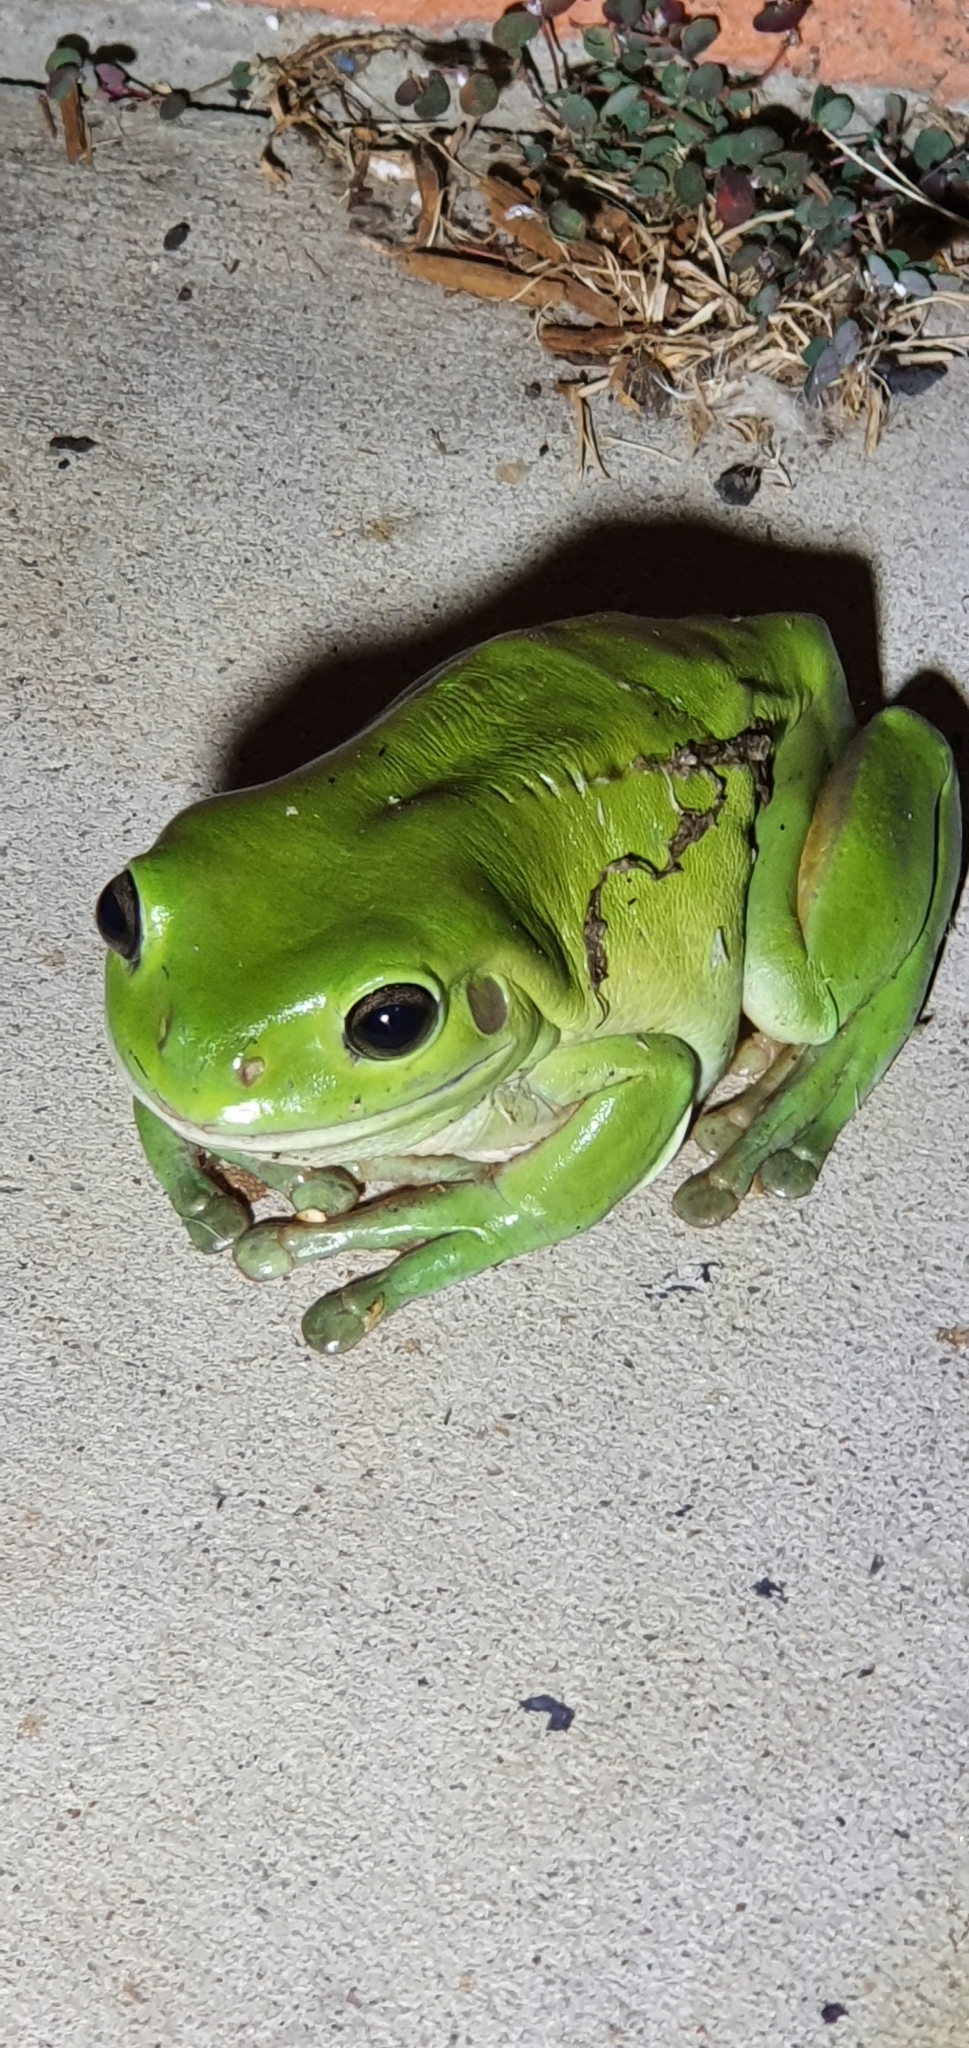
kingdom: Animalia
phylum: Chordata
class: Amphibia
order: Anura
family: Pelodryadidae
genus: Ranoidea
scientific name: Ranoidea caerulea
